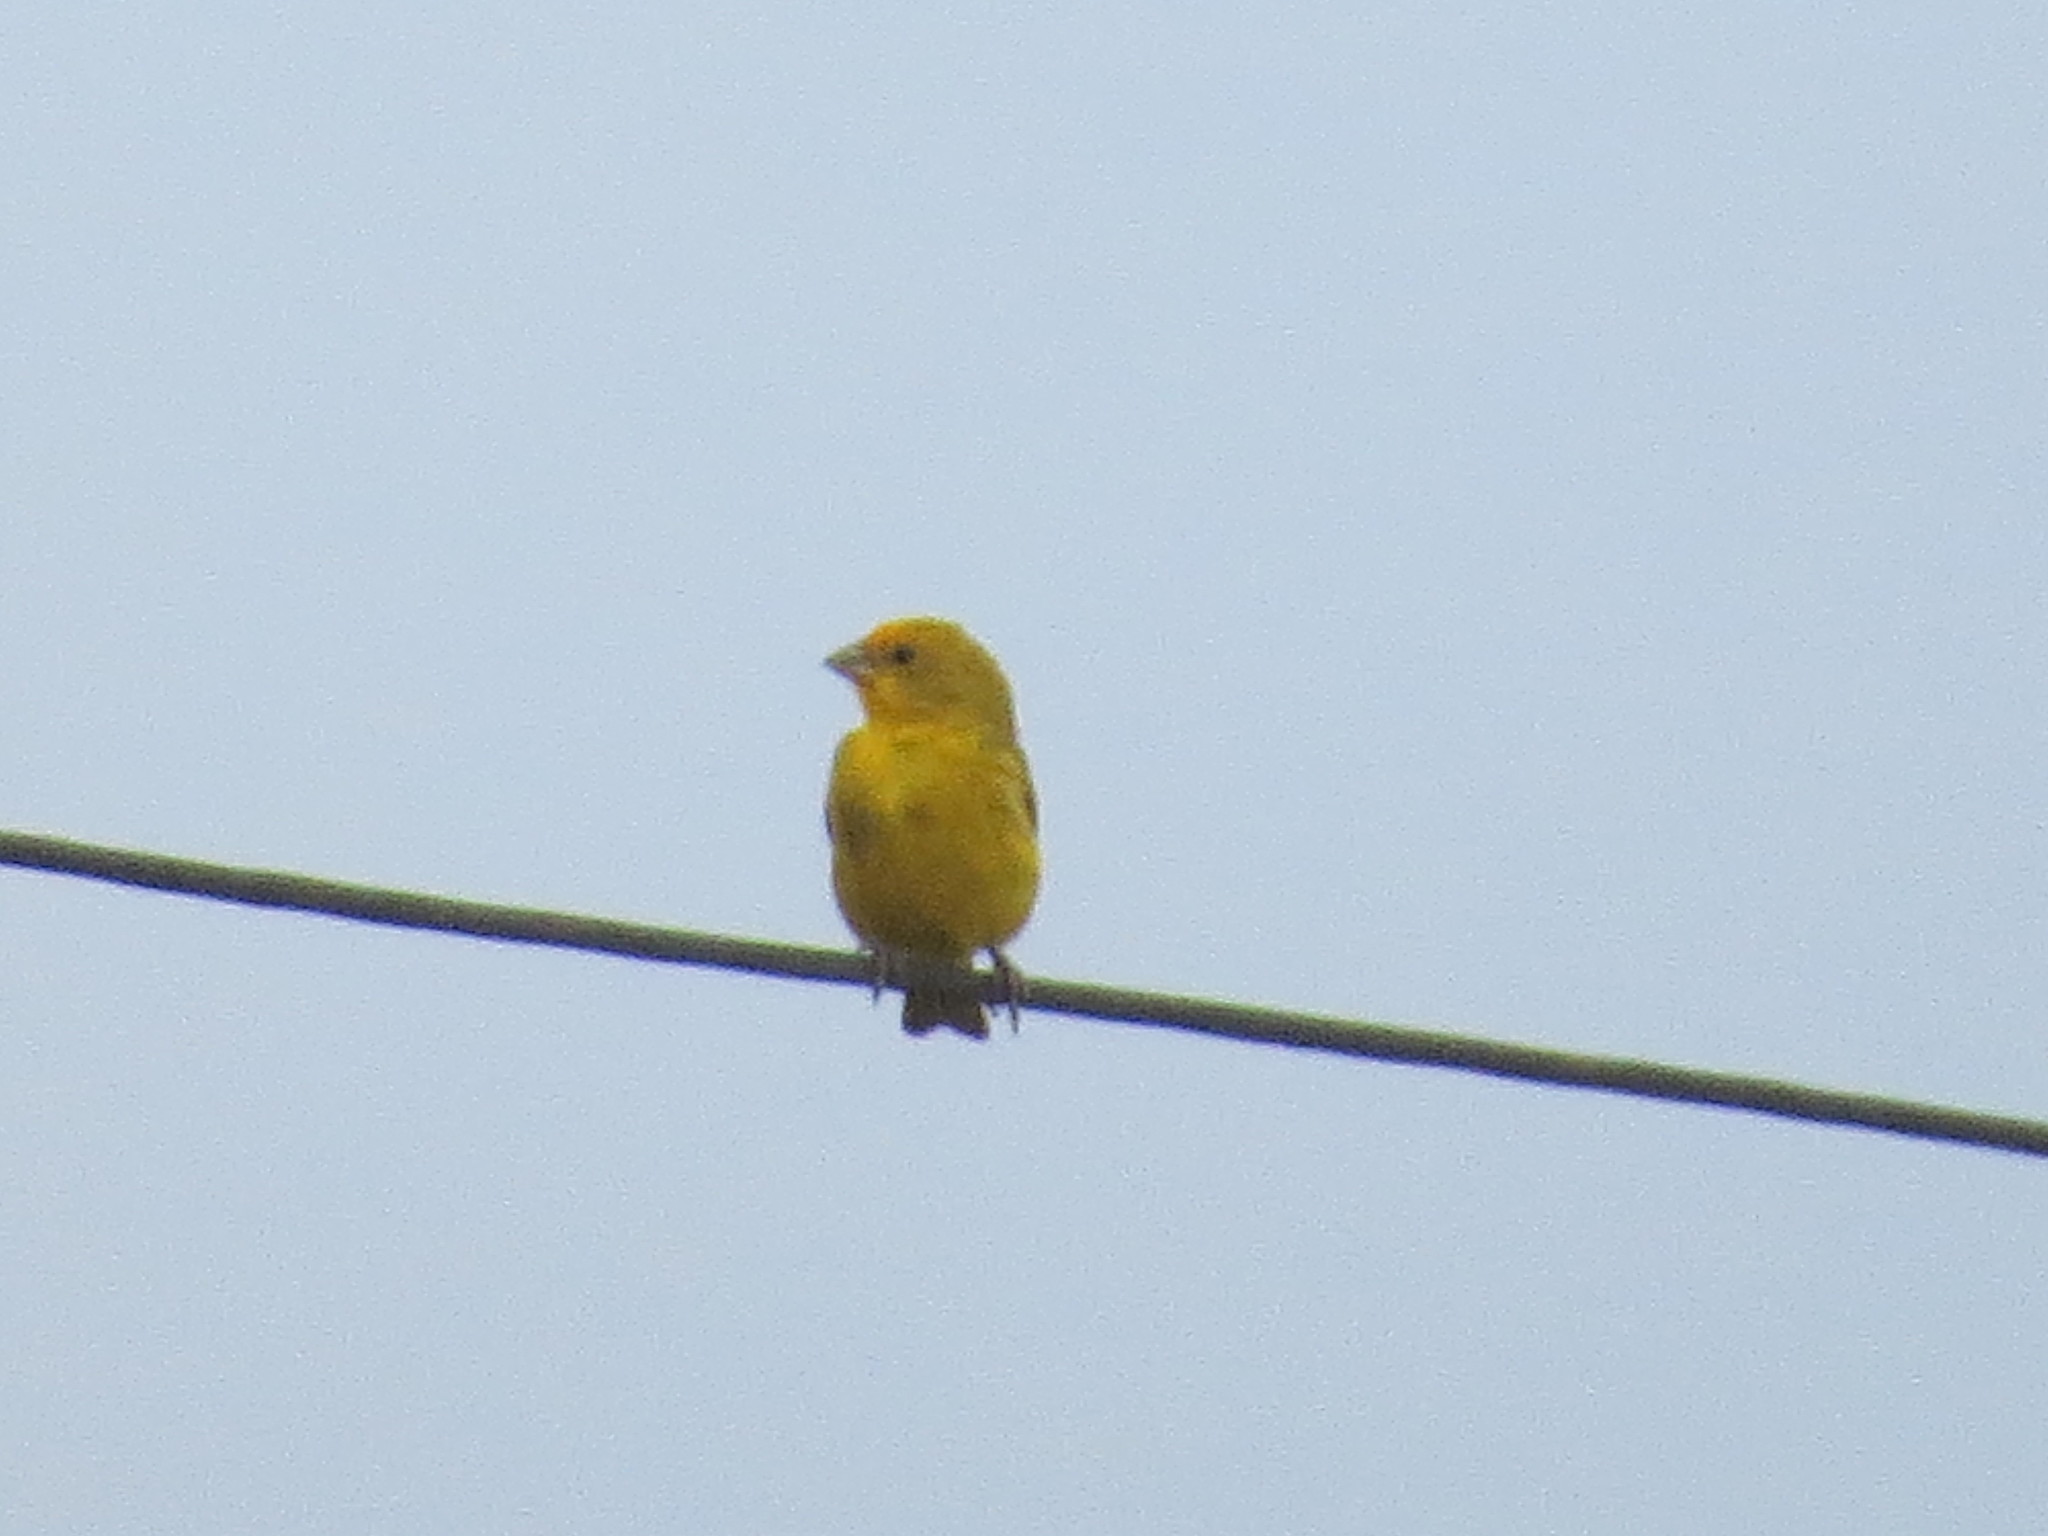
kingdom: Animalia
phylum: Chordata
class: Aves
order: Passeriformes
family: Thraupidae
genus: Sicalis
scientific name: Sicalis flaveola
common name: Saffron finch
